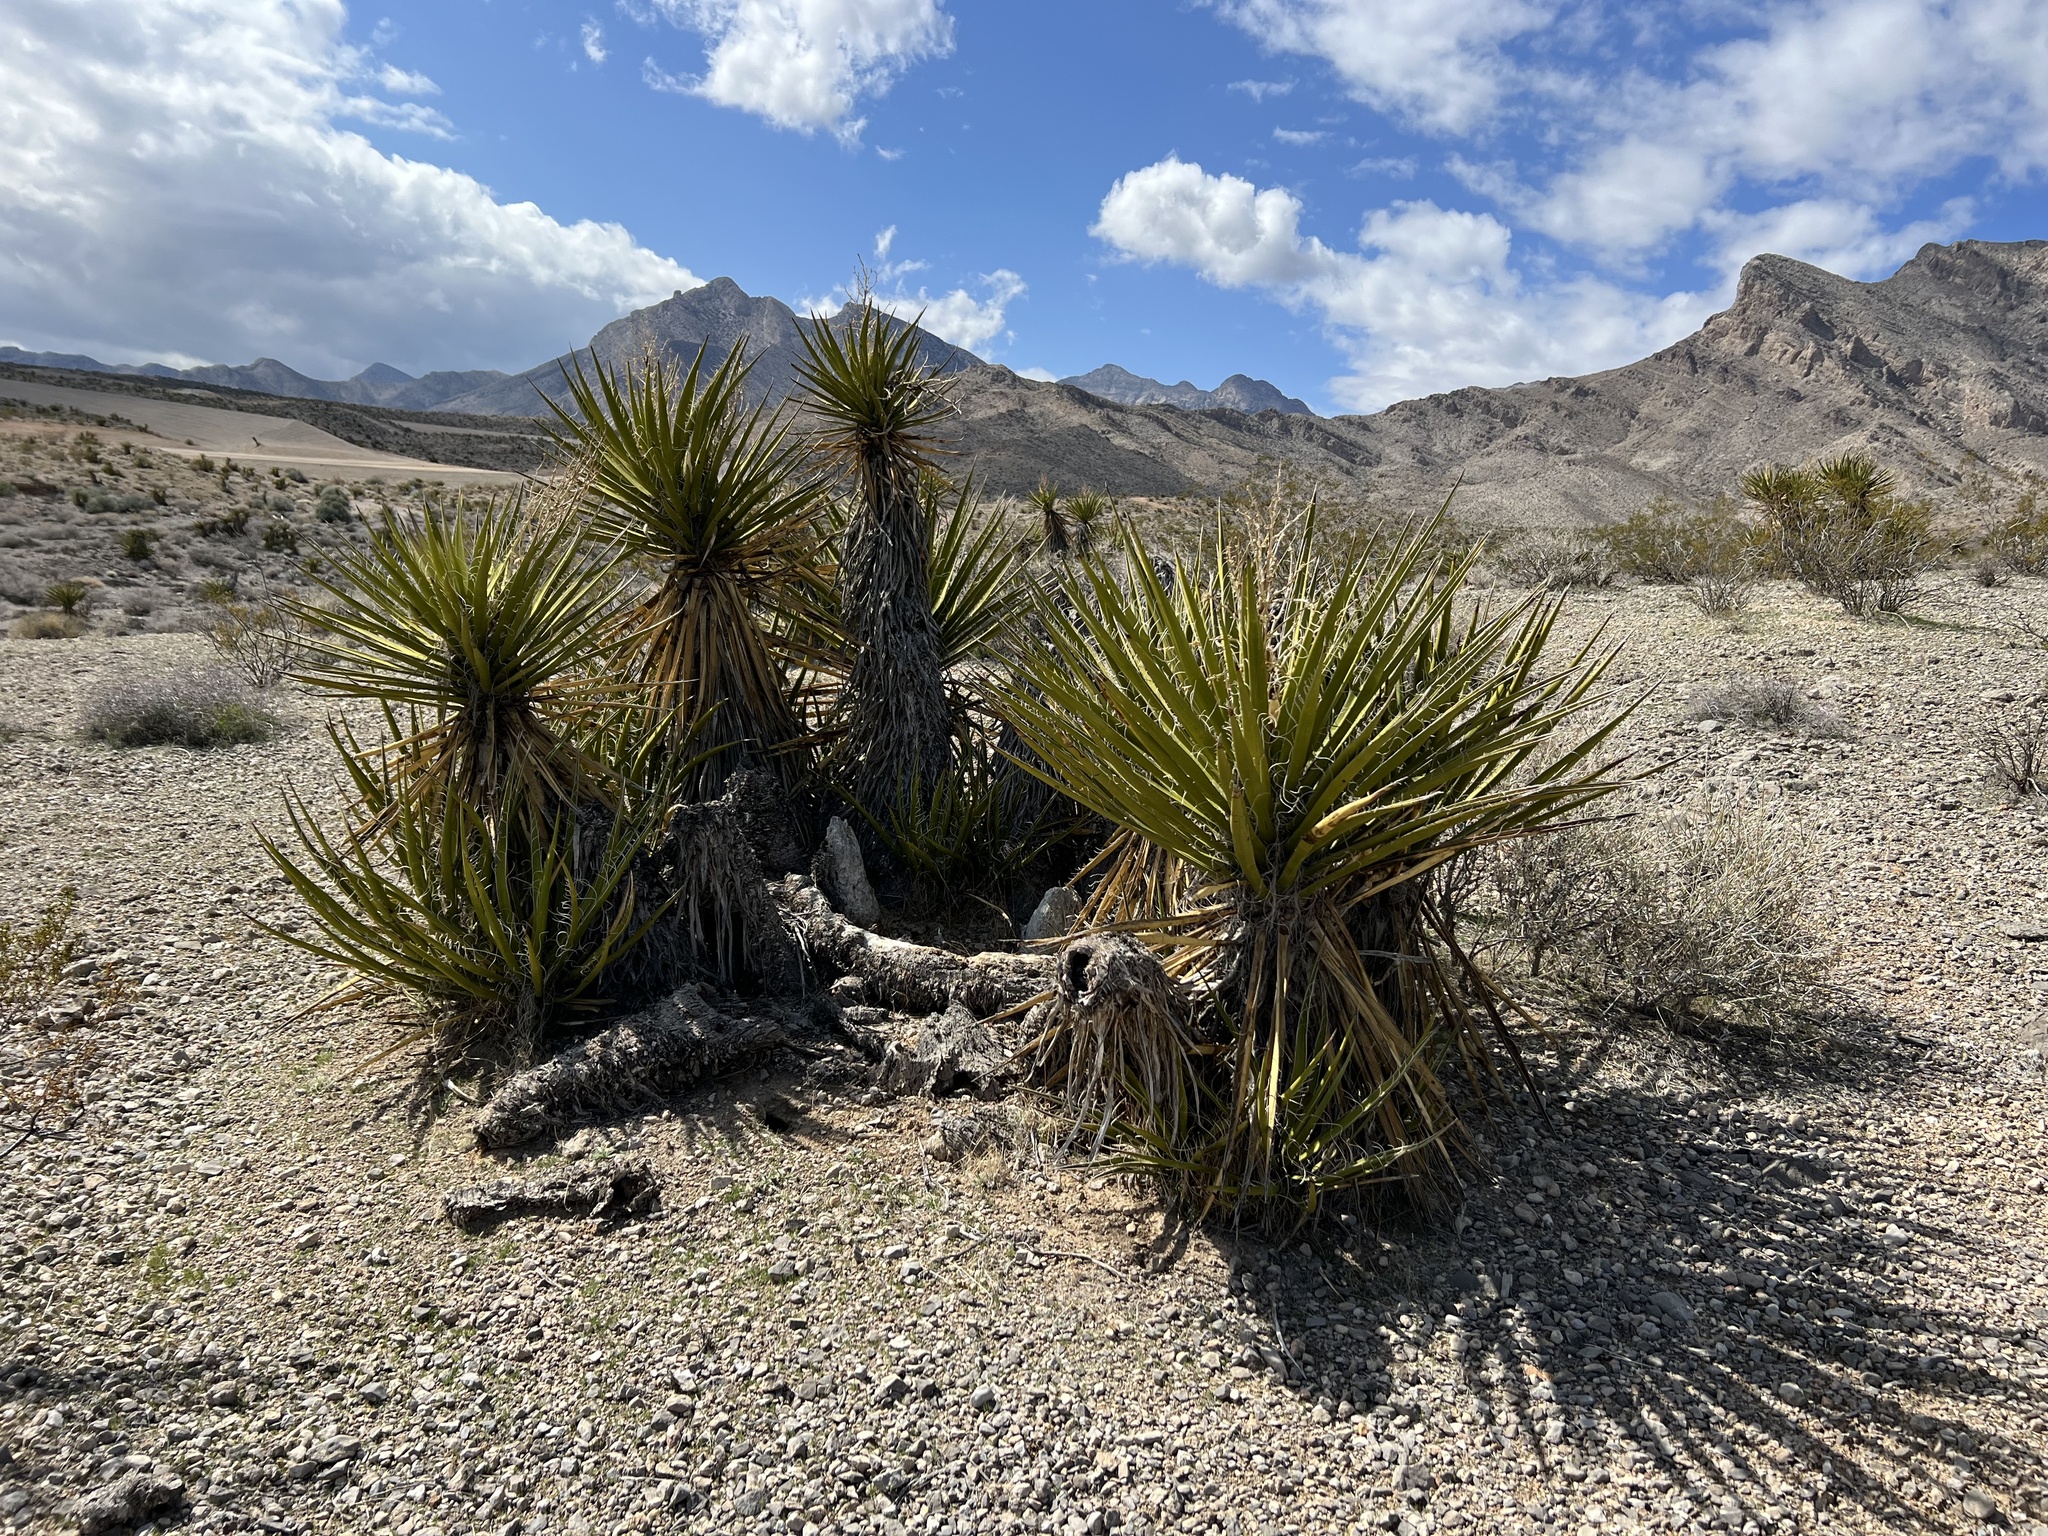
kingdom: Plantae
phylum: Tracheophyta
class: Liliopsida
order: Asparagales
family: Asparagaceae
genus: Yucca
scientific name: Yucca schidigera
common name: Mojave yucca
